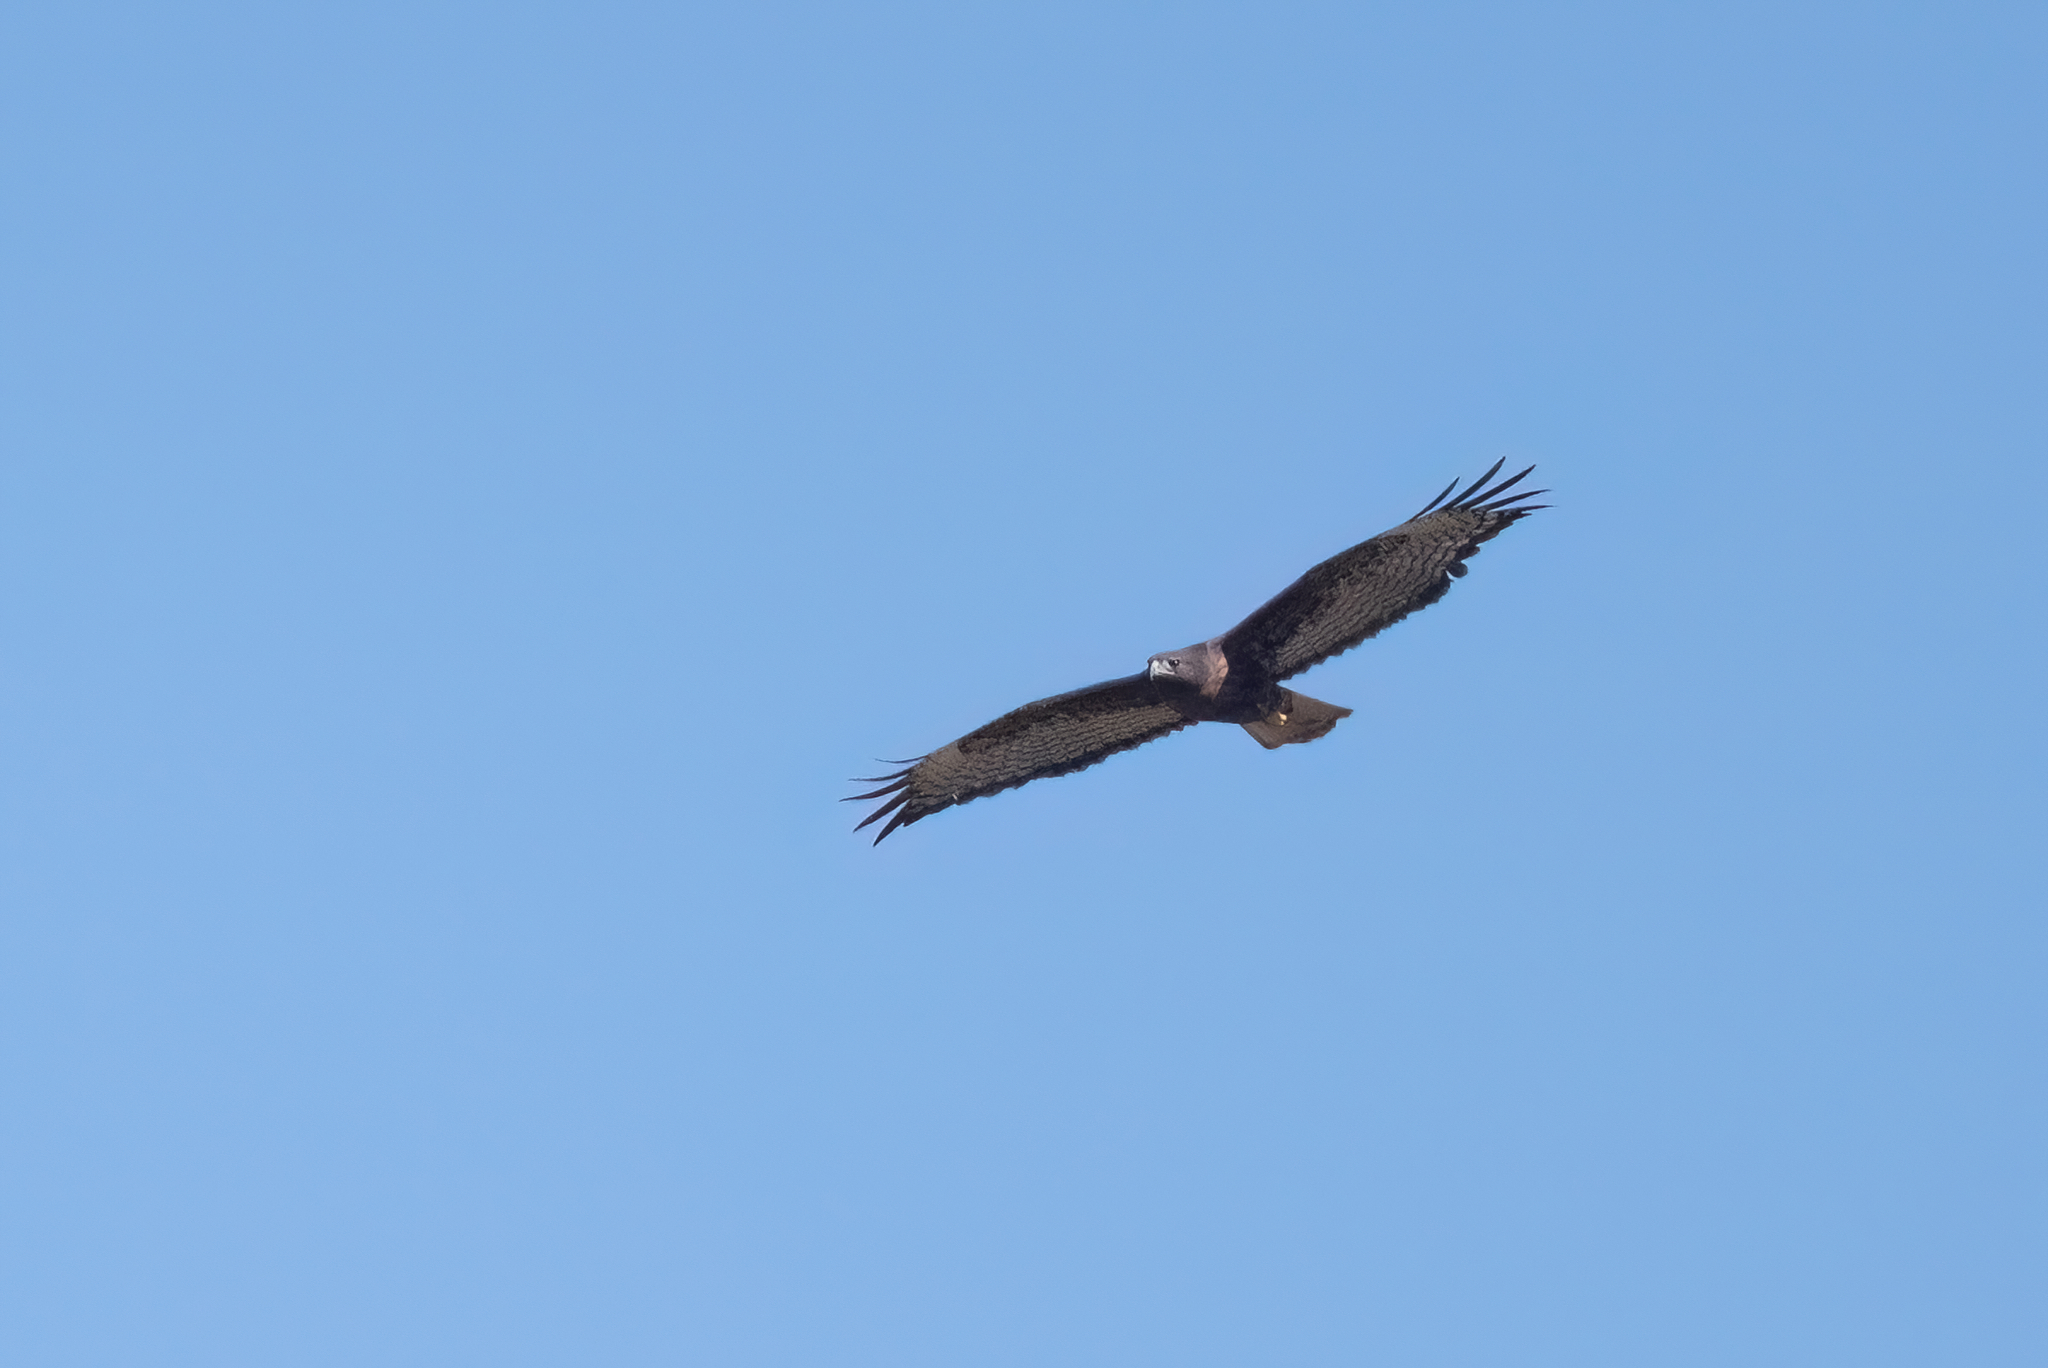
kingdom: Animalia
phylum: Chordata
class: Aves
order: Accipitriformes
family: Accipitridae
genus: Buteo
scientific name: Buteo jamaicensis
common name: Red-tailed hawk
